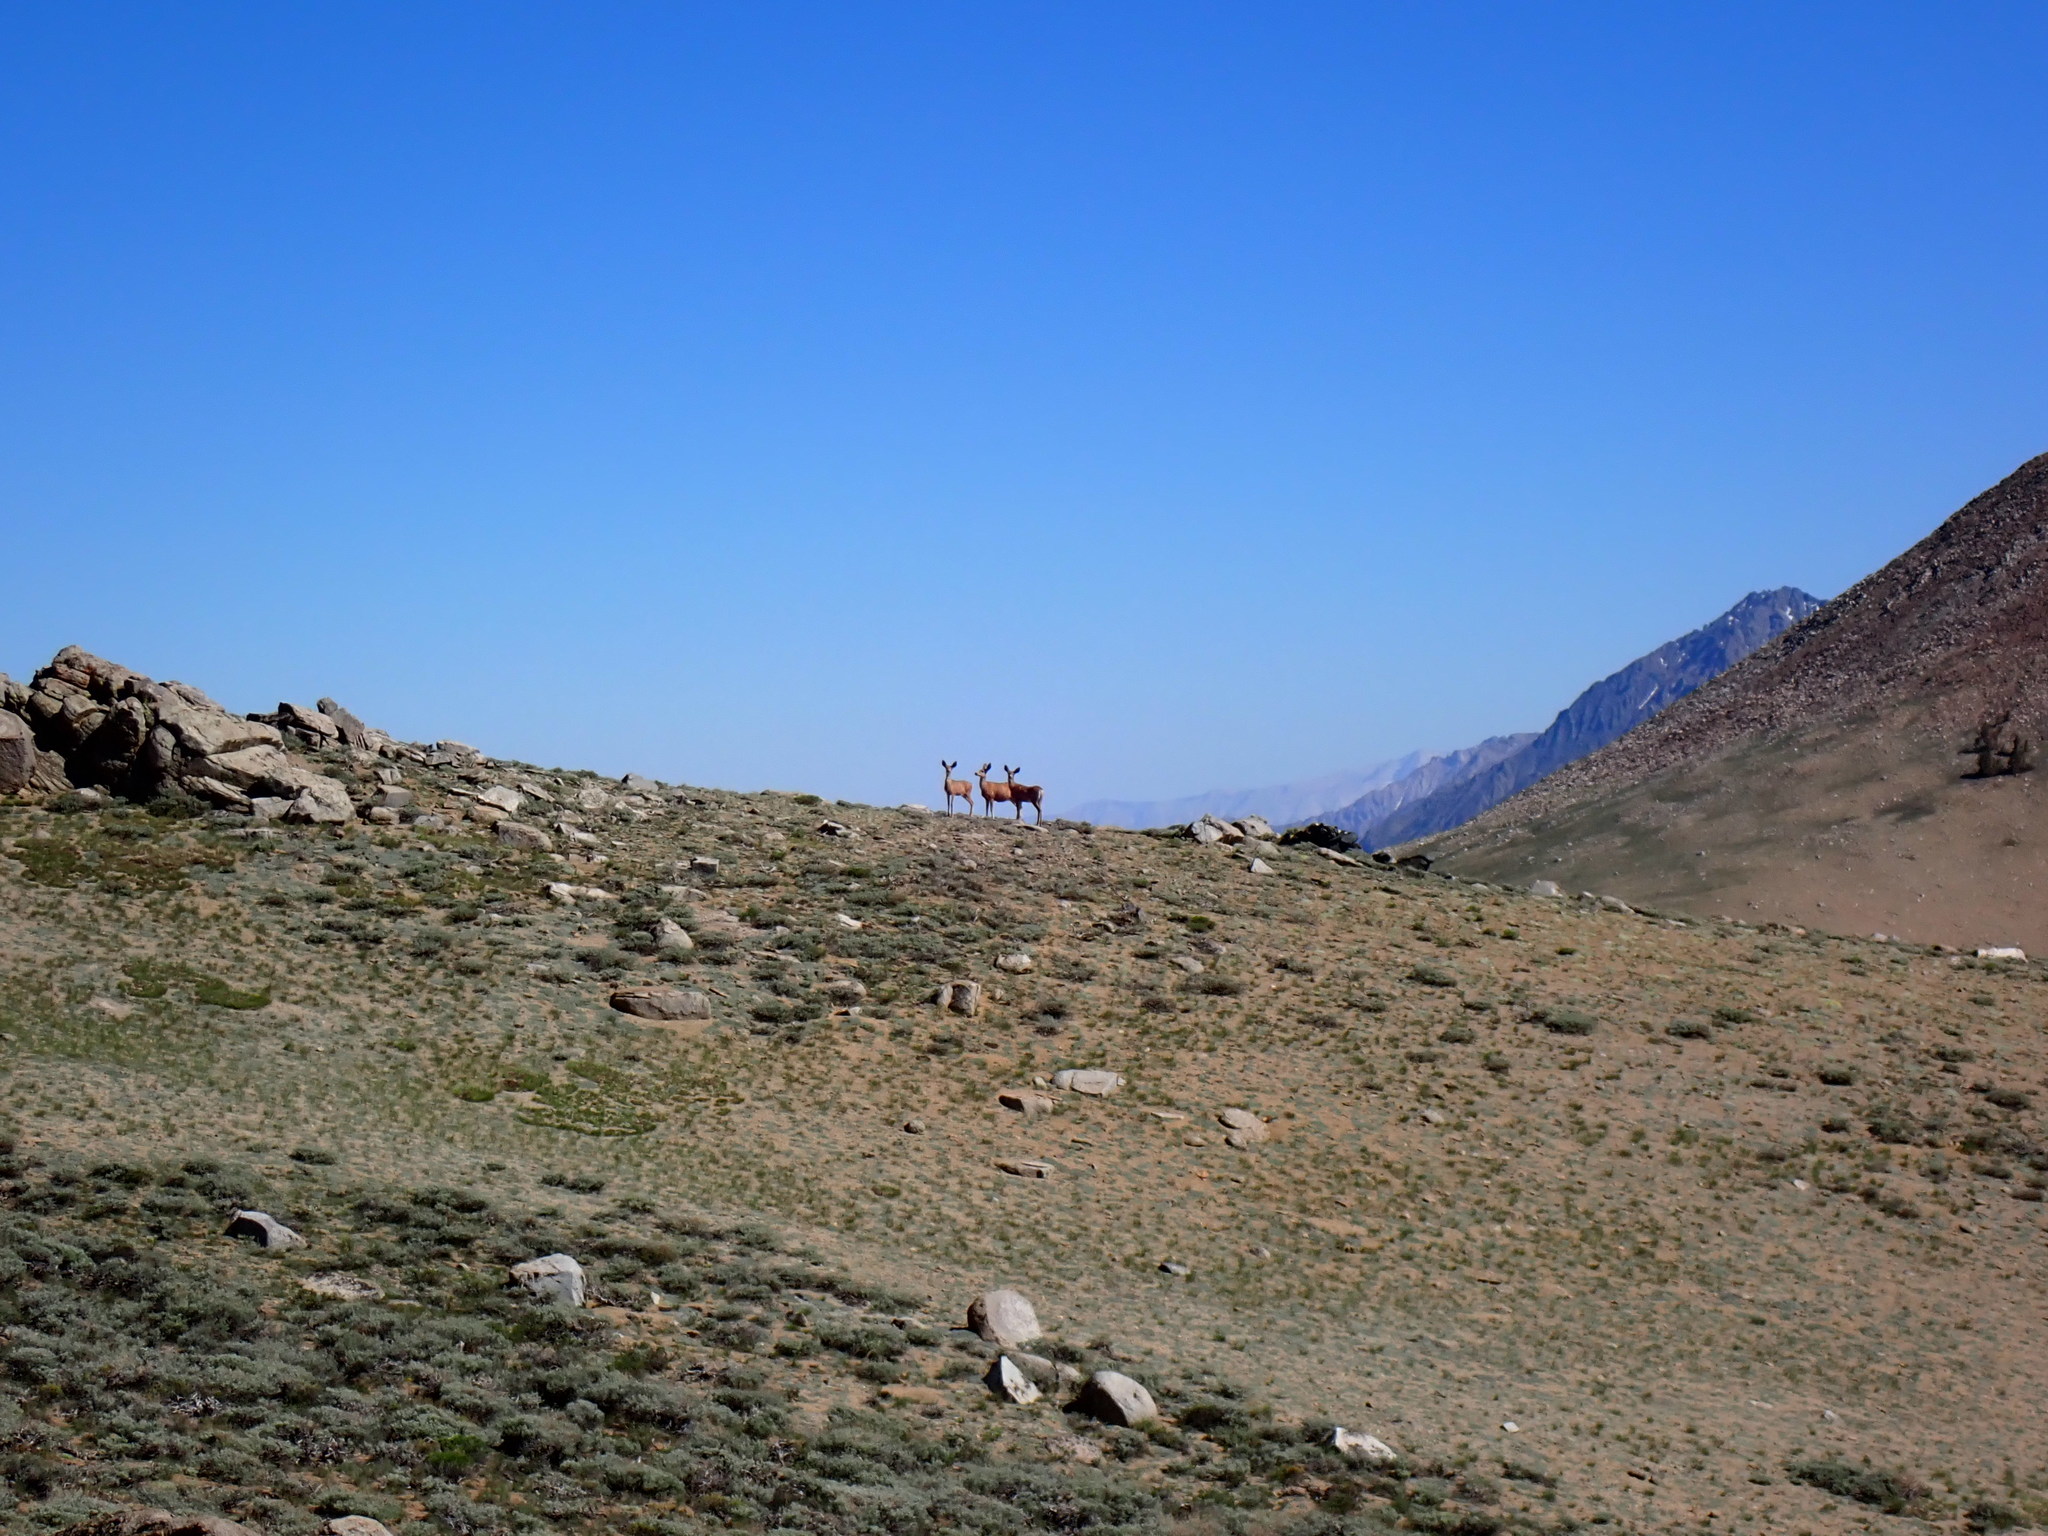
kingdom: Animalia
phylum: Chordata
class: Mammalia
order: Artiodactyla
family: Cervidae
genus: Odocoileus
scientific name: Odocoileus hemionus
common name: Mule deer
